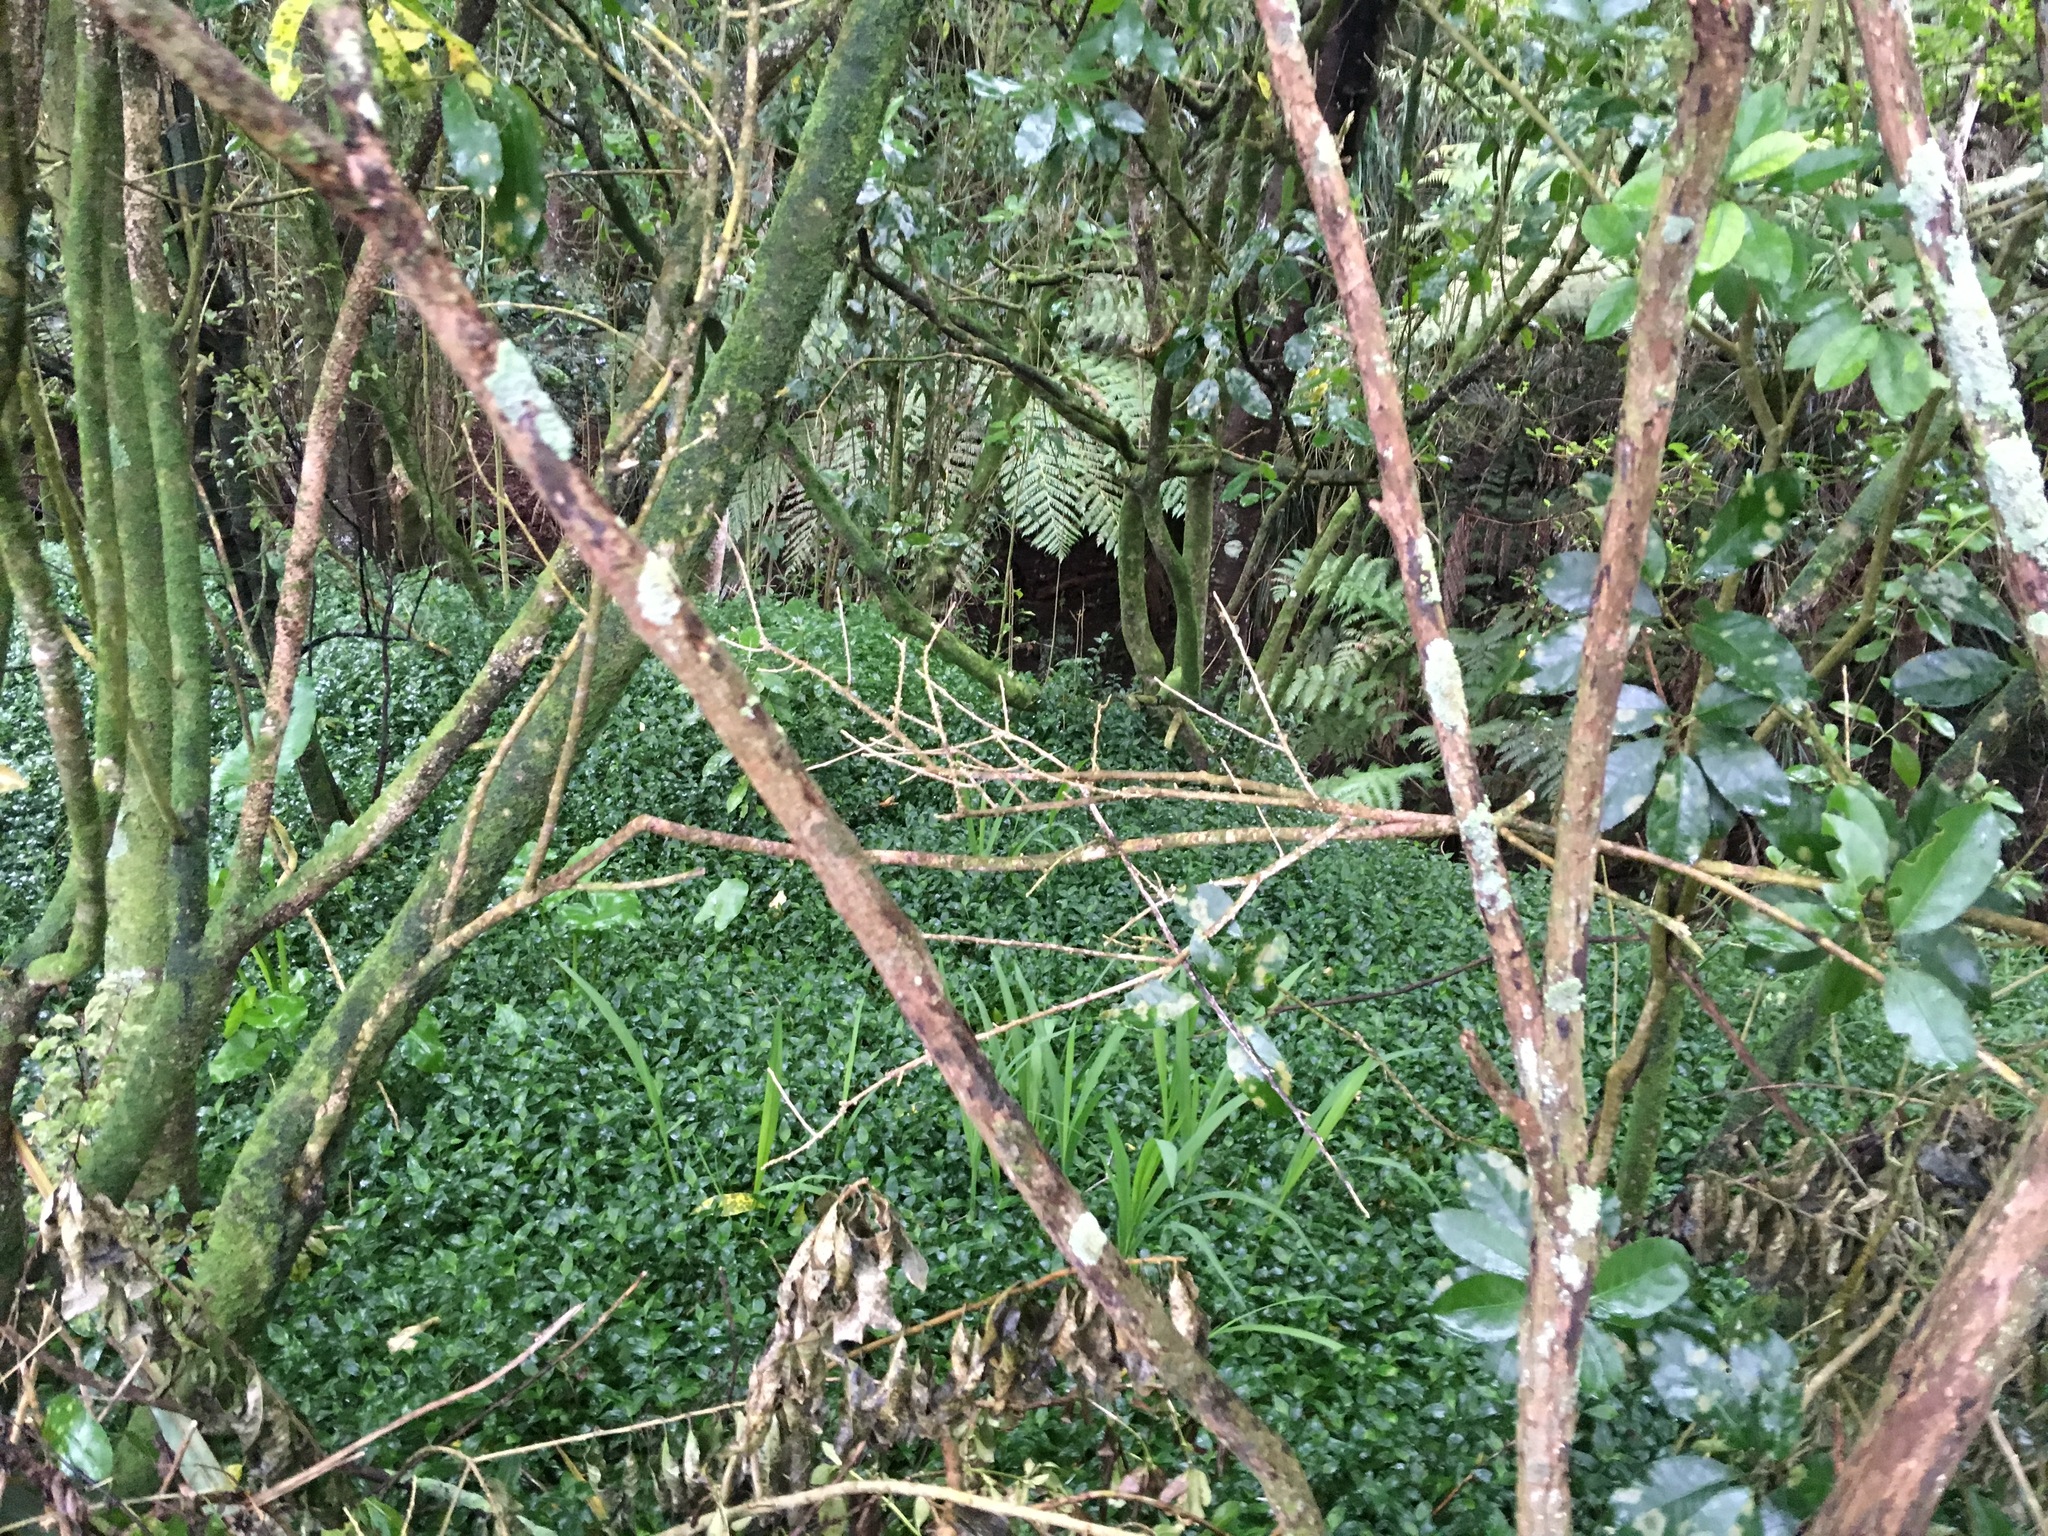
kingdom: Plantae
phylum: Tracheophyta
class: Liliopsida
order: Commelinales
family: Commelinaceae
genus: Tradescantia
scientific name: Tradescantia fluminensis
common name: Wandering-jew
